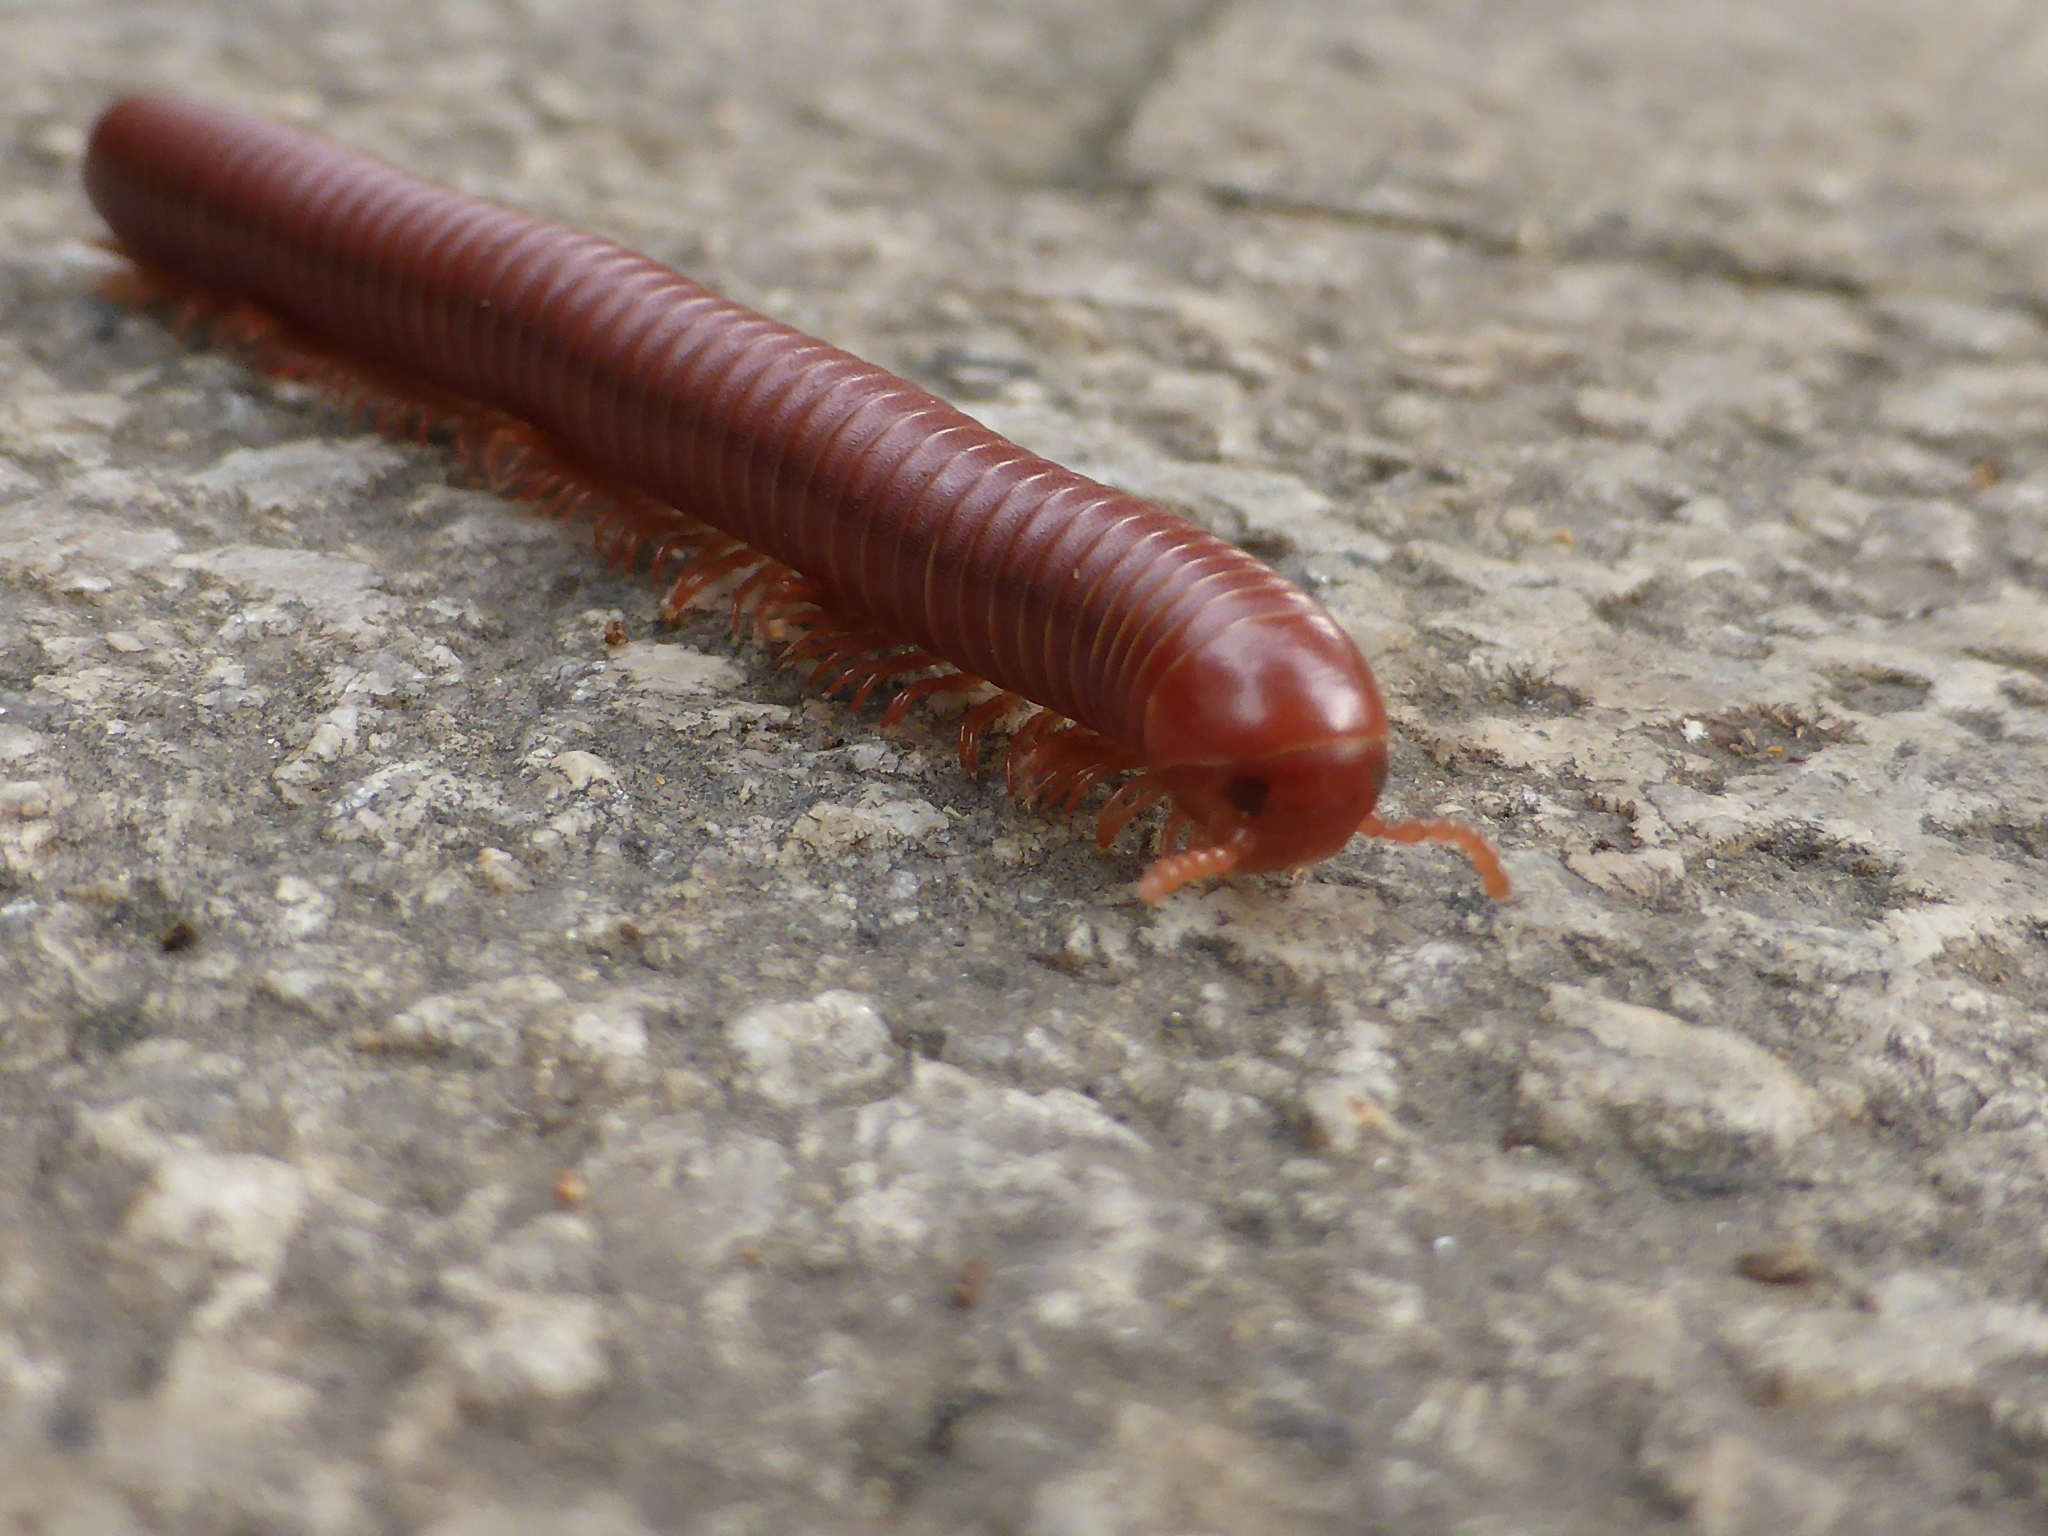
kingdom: Animalia
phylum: Arthropoda
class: Diplopoda
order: Spirobolida
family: Pachybolidae
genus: Trigoniulus
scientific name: Trigoniulus corallinus
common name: Millipede
